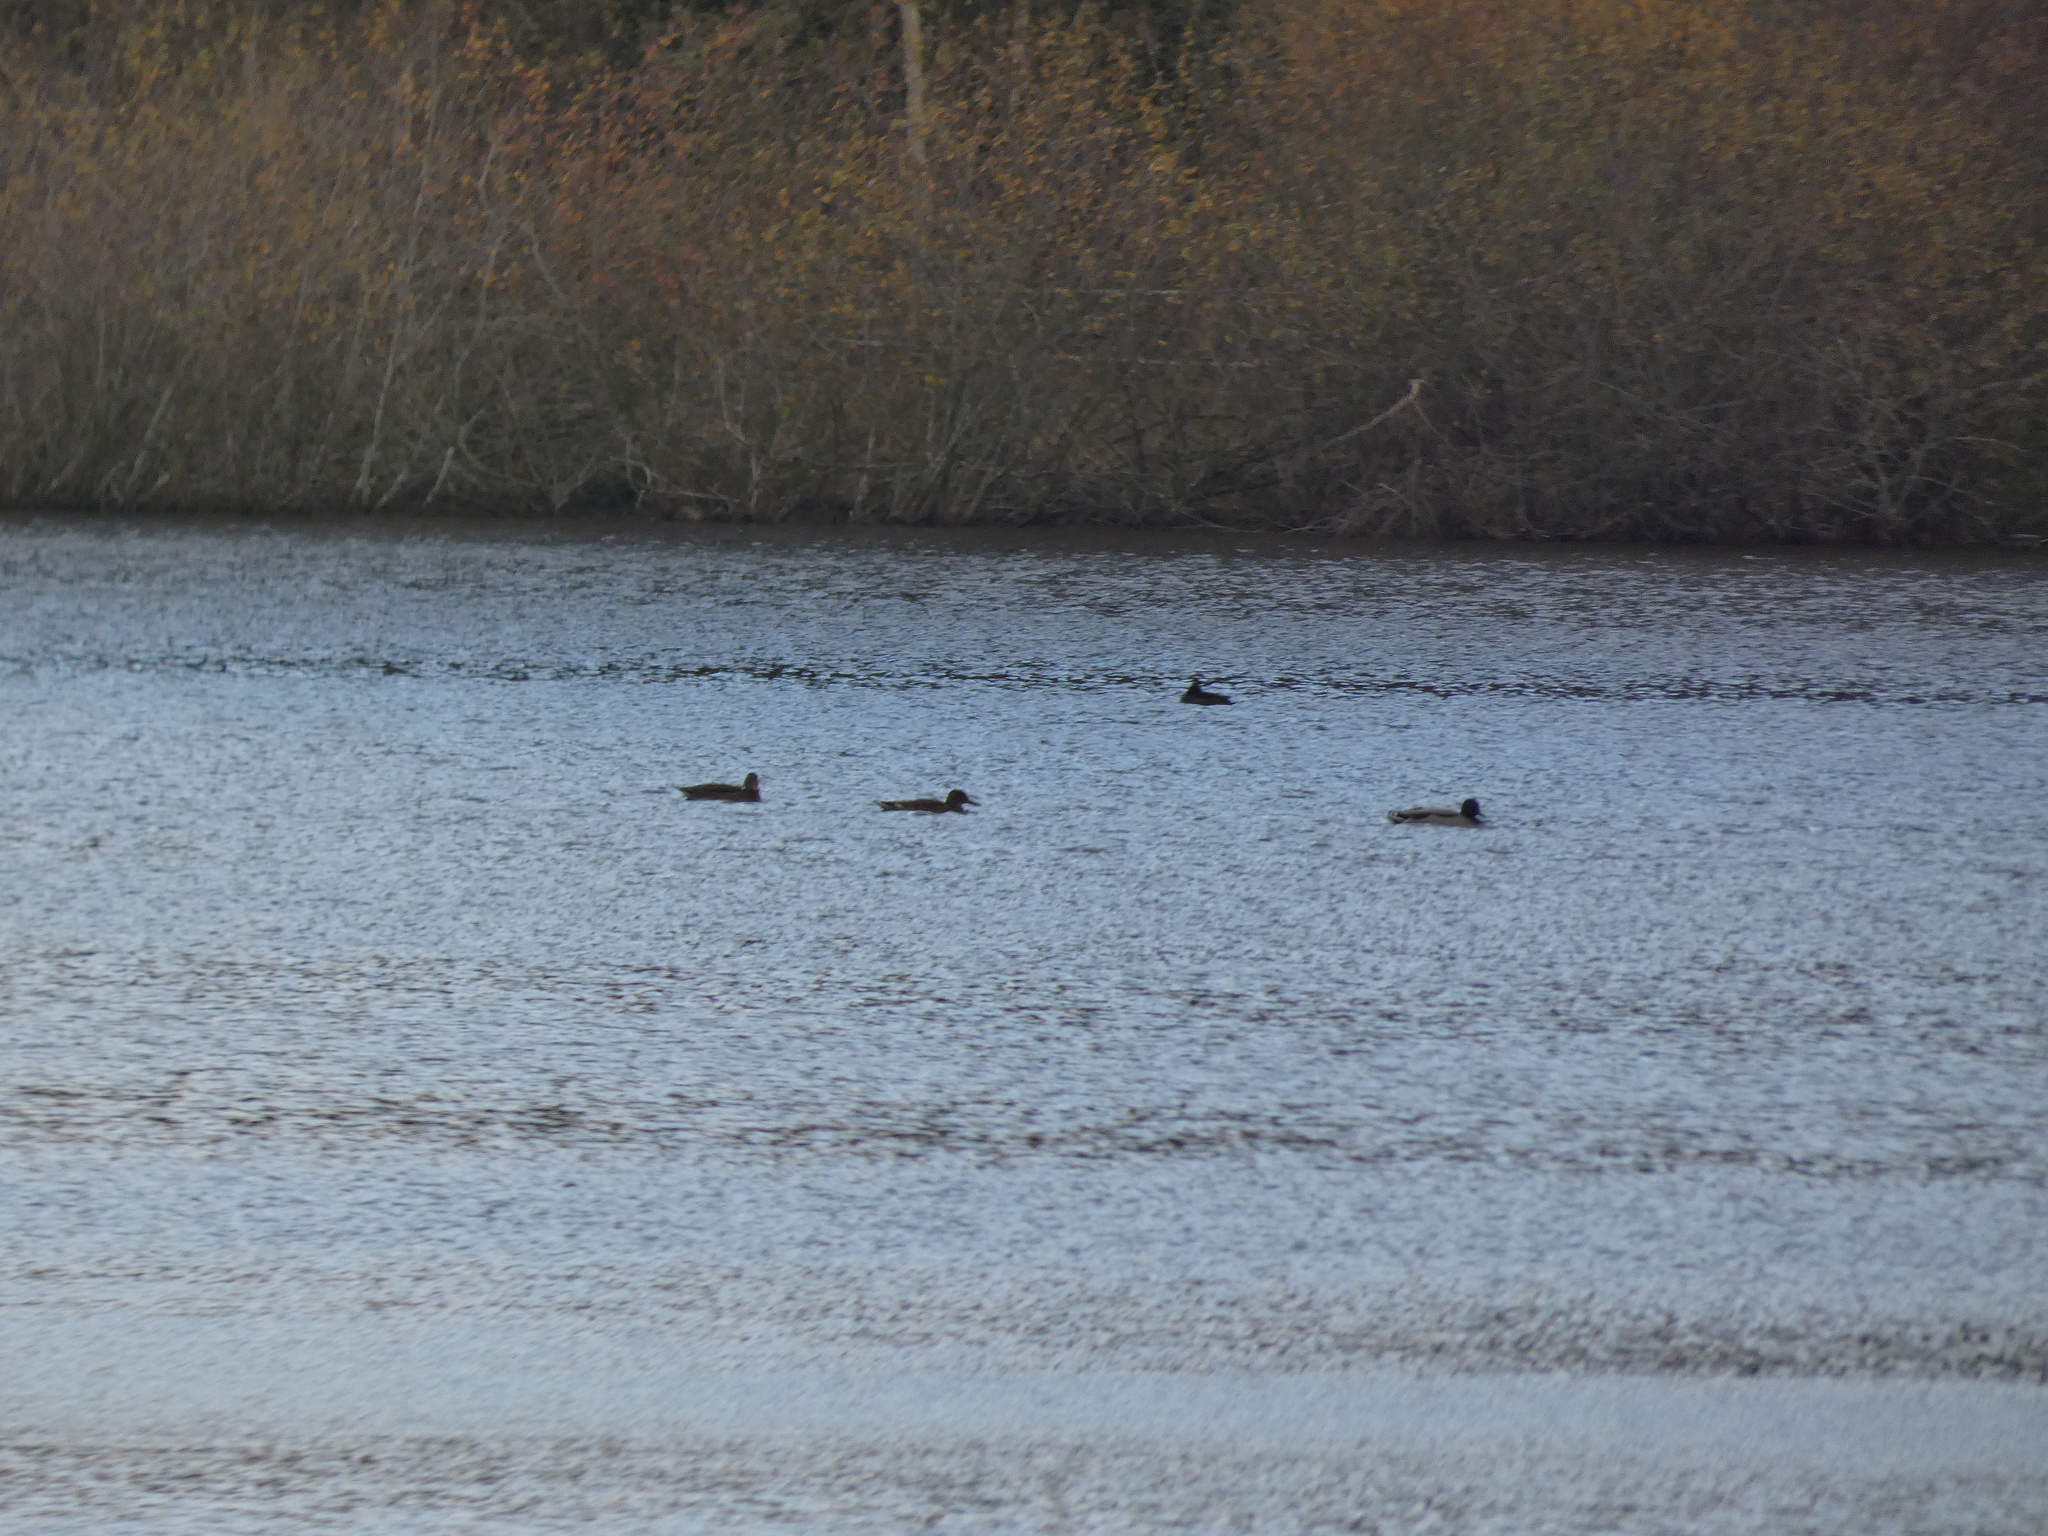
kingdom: Animalia
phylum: Chordata
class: Aves
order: Anseriformes
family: Anatidae
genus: Anas
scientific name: Anas platyrhynchos
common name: Mallard
